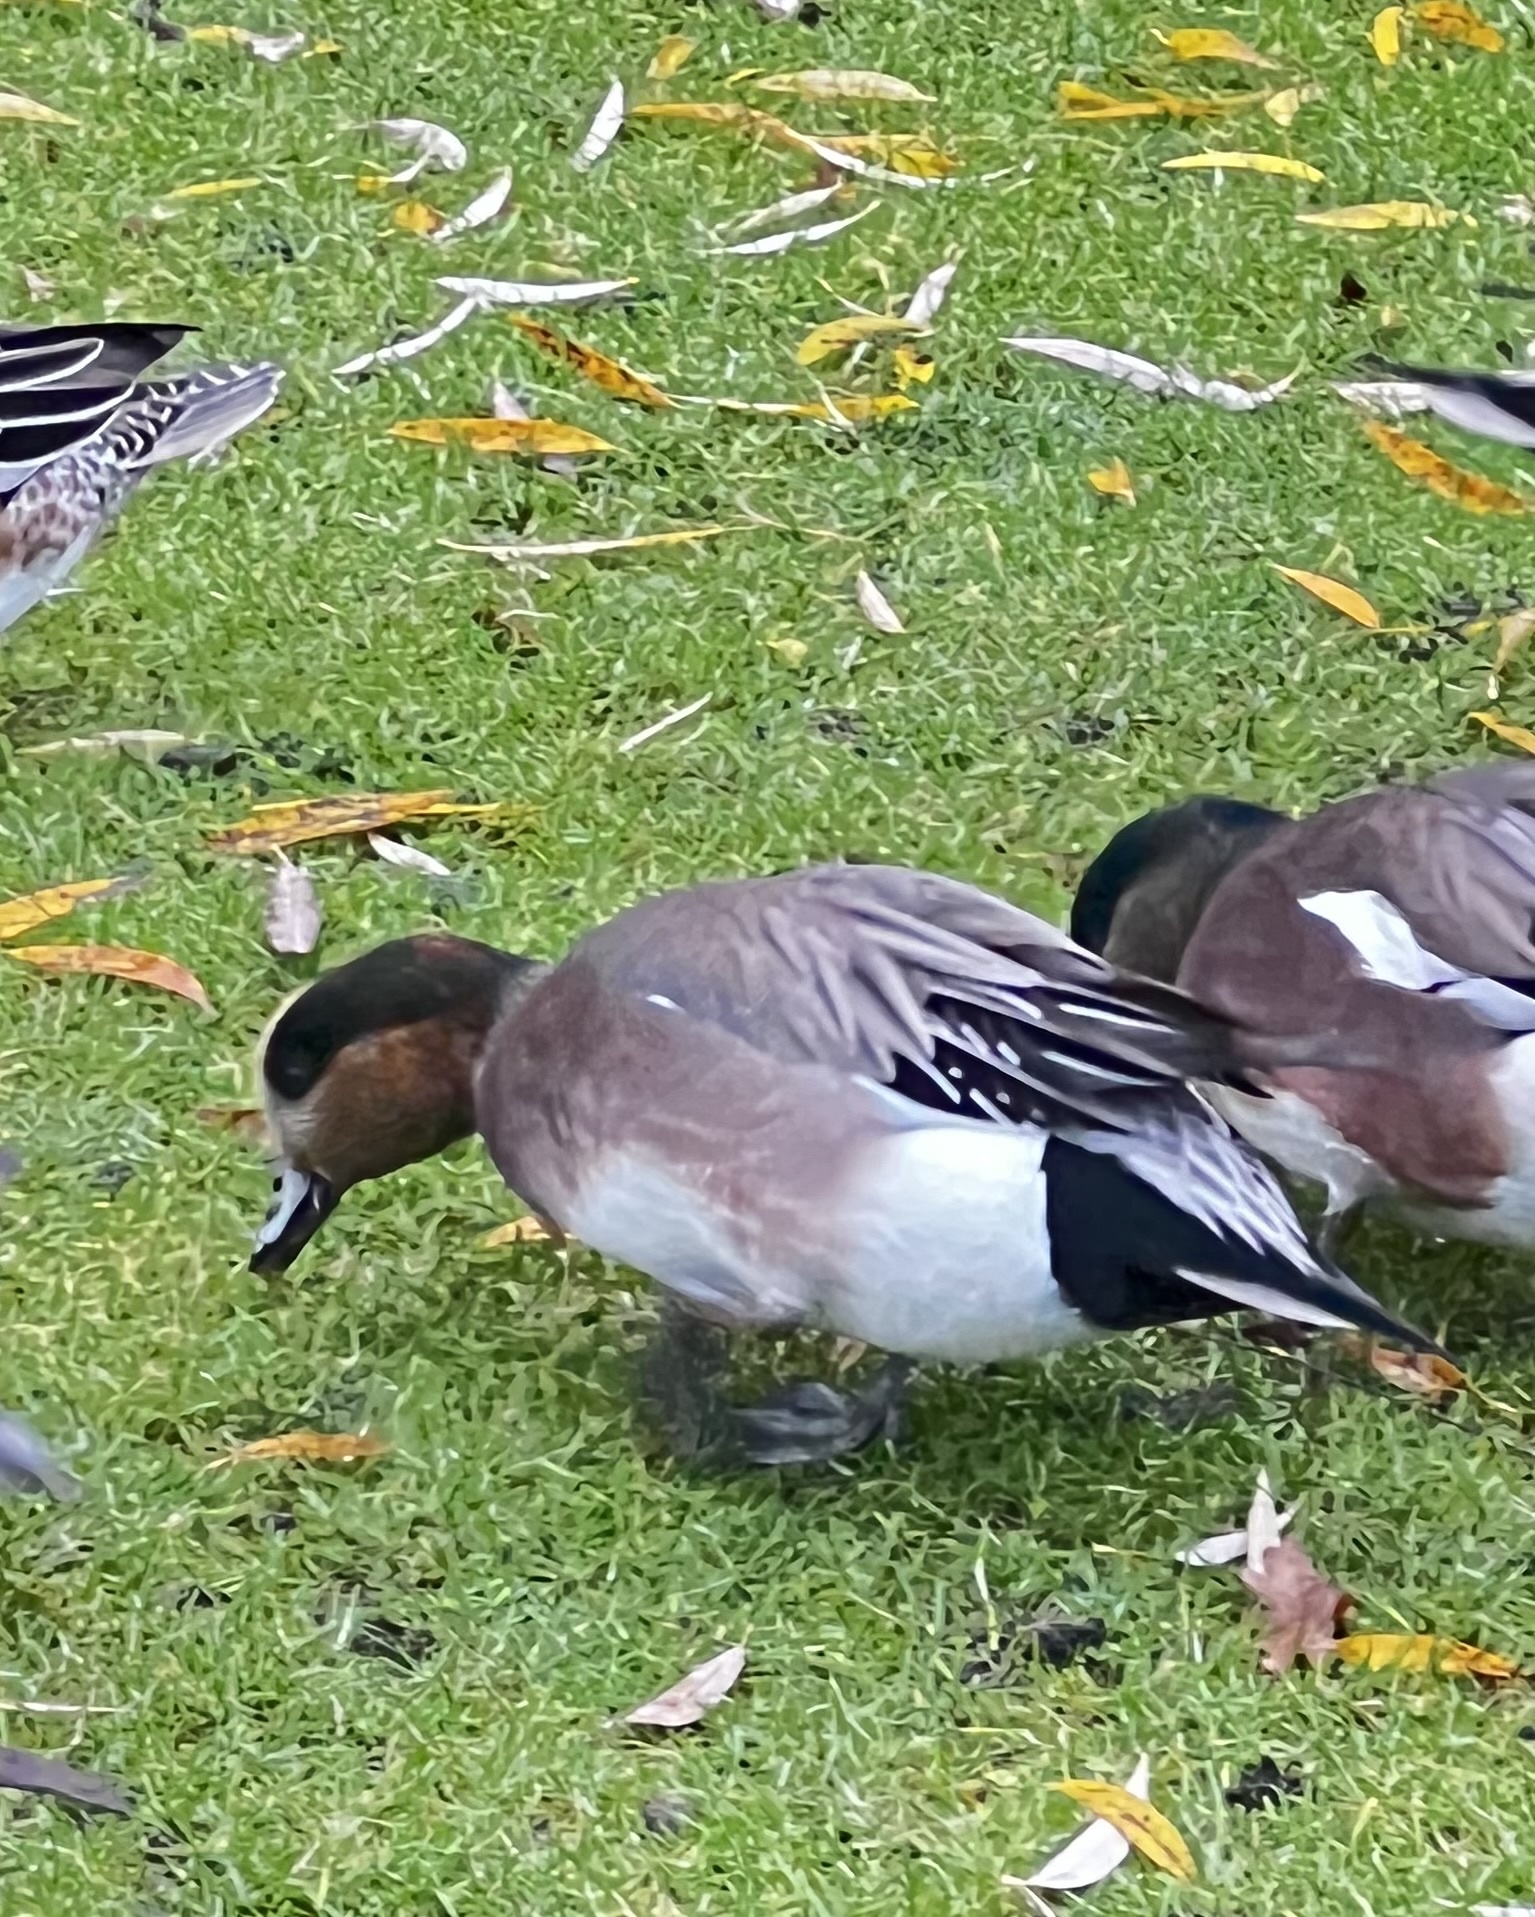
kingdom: Animalia
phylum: Chordata
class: Aves
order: Anseriformes
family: Anatidae
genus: Mareca
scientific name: Mareca
